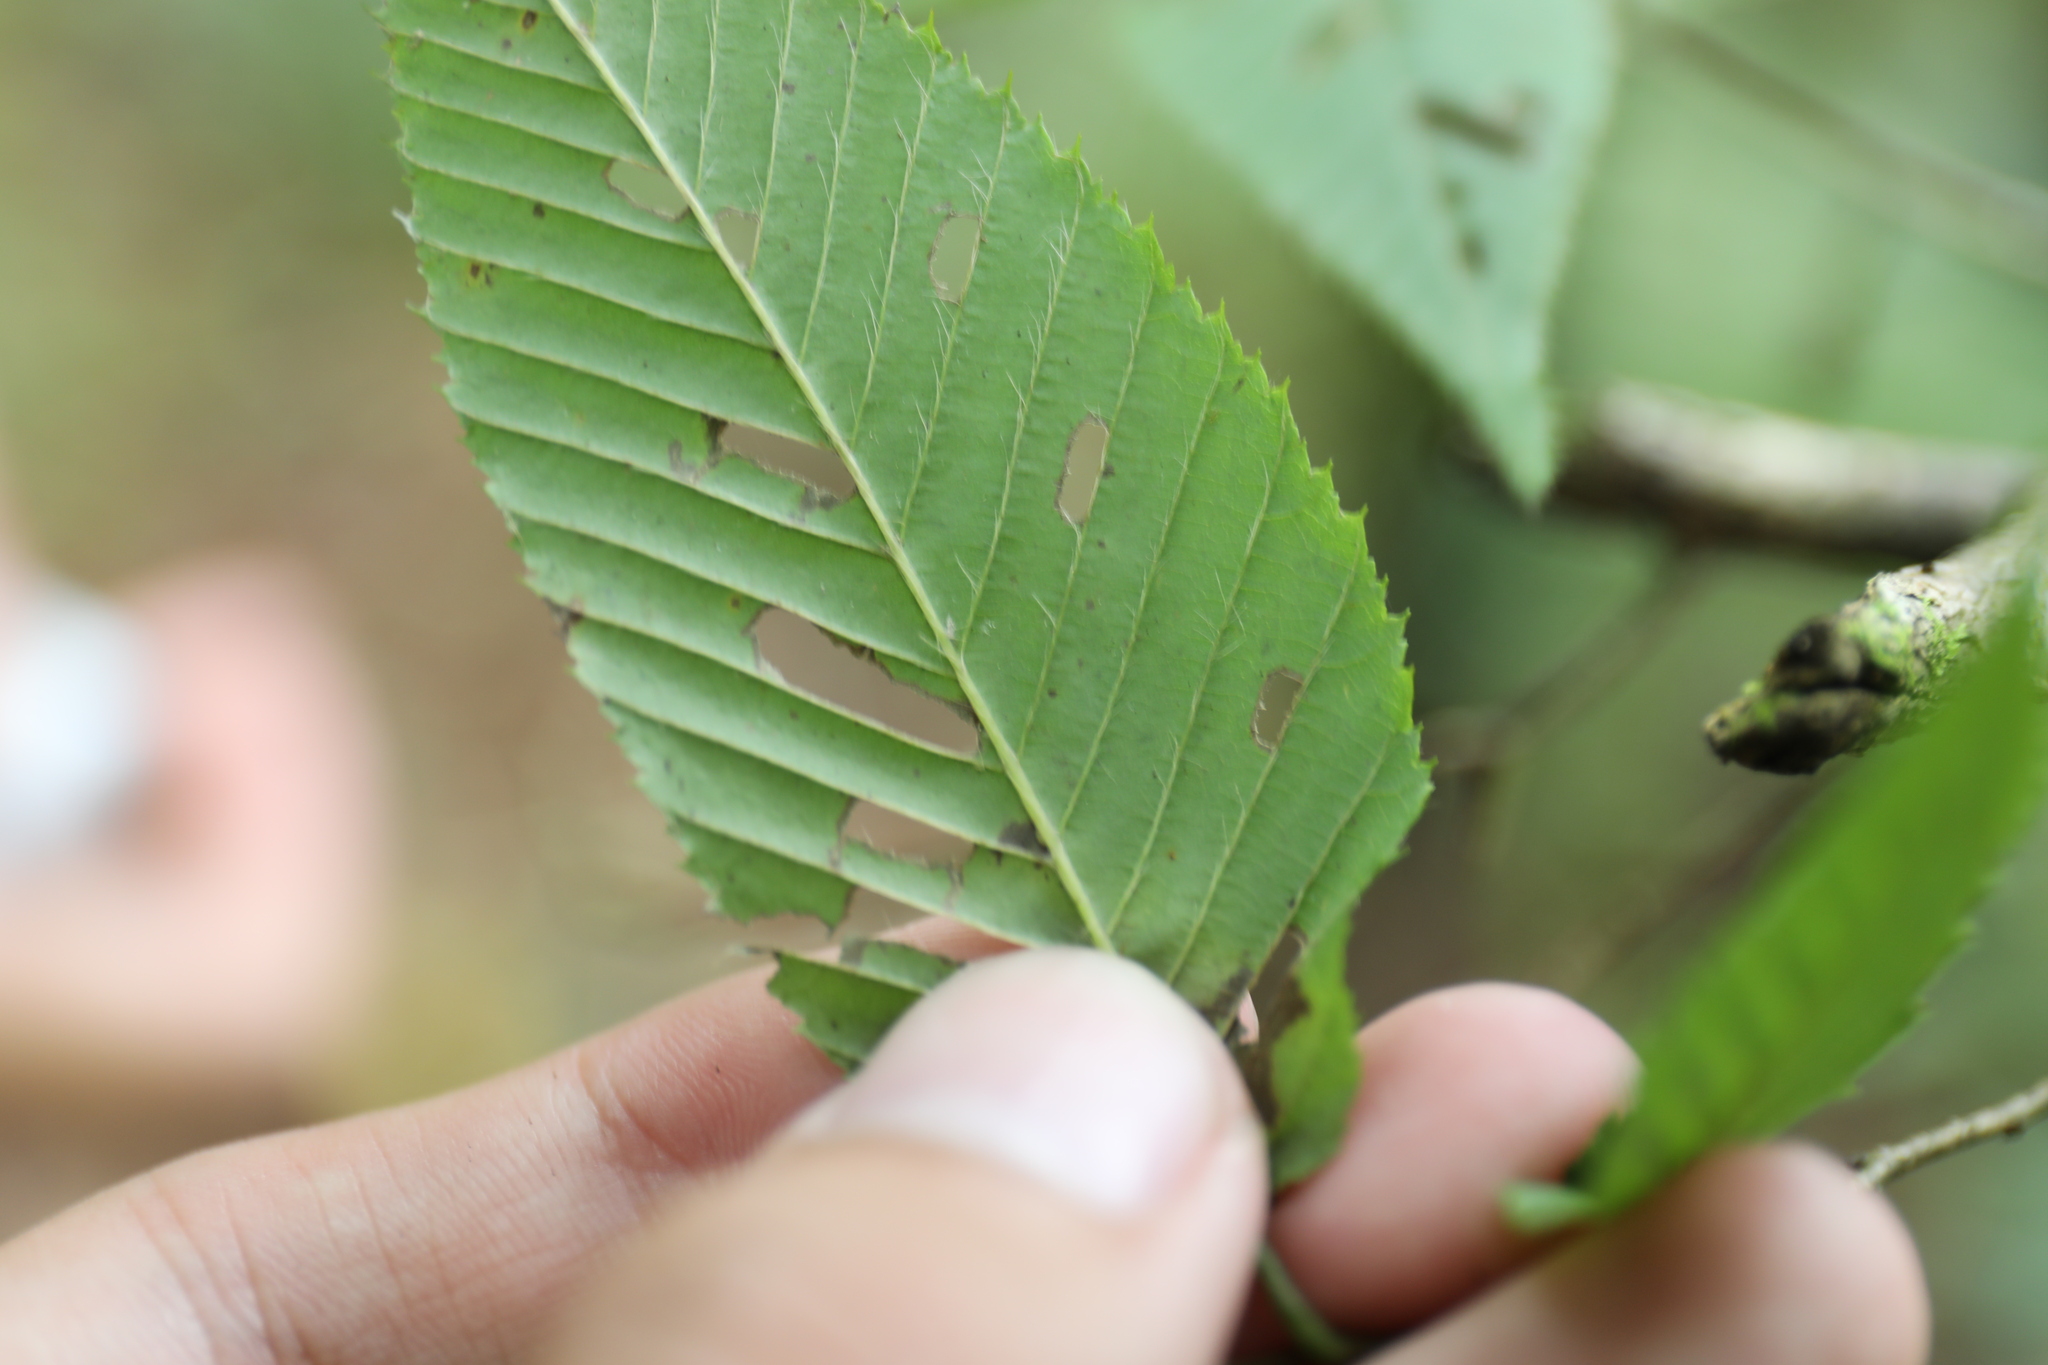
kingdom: Plantae
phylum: Tracheophyta
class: Magnoliopsida
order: Fagales
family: Betulaceae
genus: Carpinus
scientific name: Carpinus rankanensis
